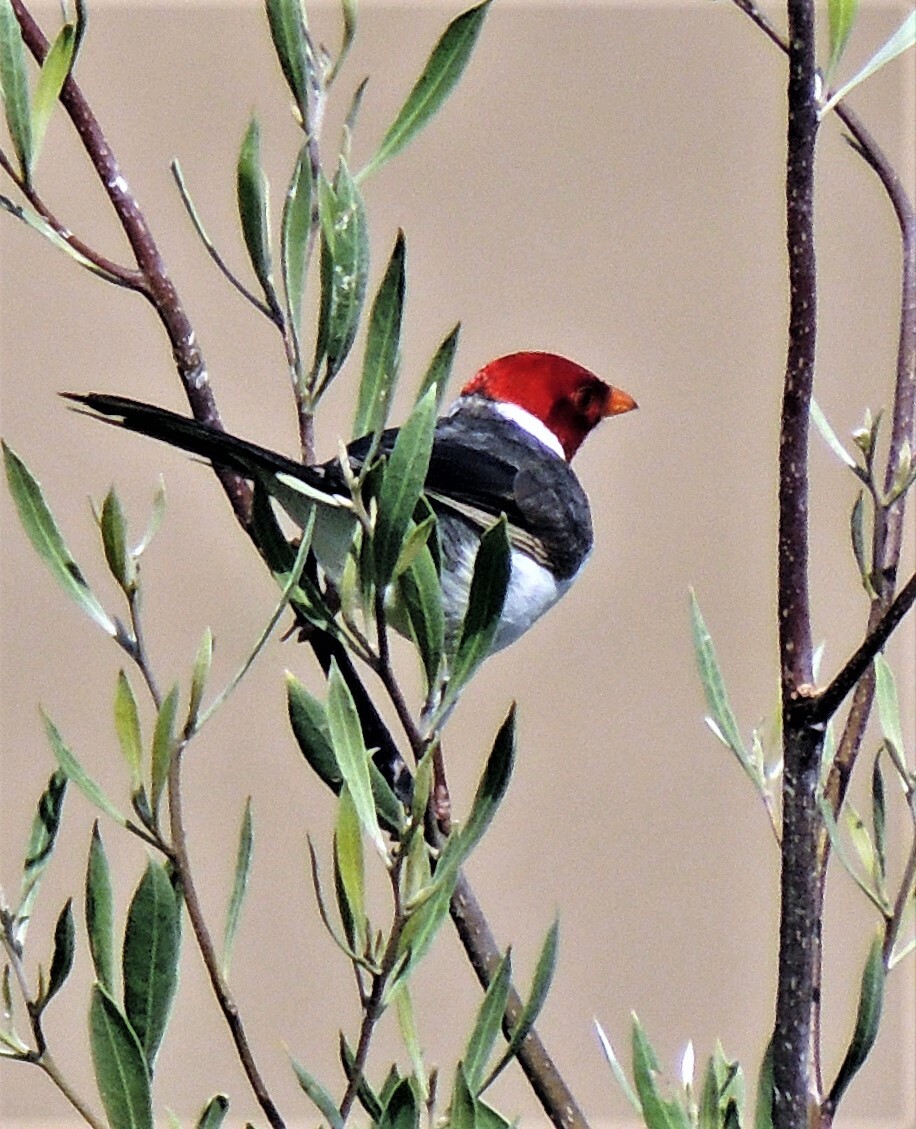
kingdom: Animalia
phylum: Chordata
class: Aves
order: Passeriformes
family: Thraupidae
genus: Paroaria
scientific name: Paroaria capitata
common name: Yellow-billed cardinal
